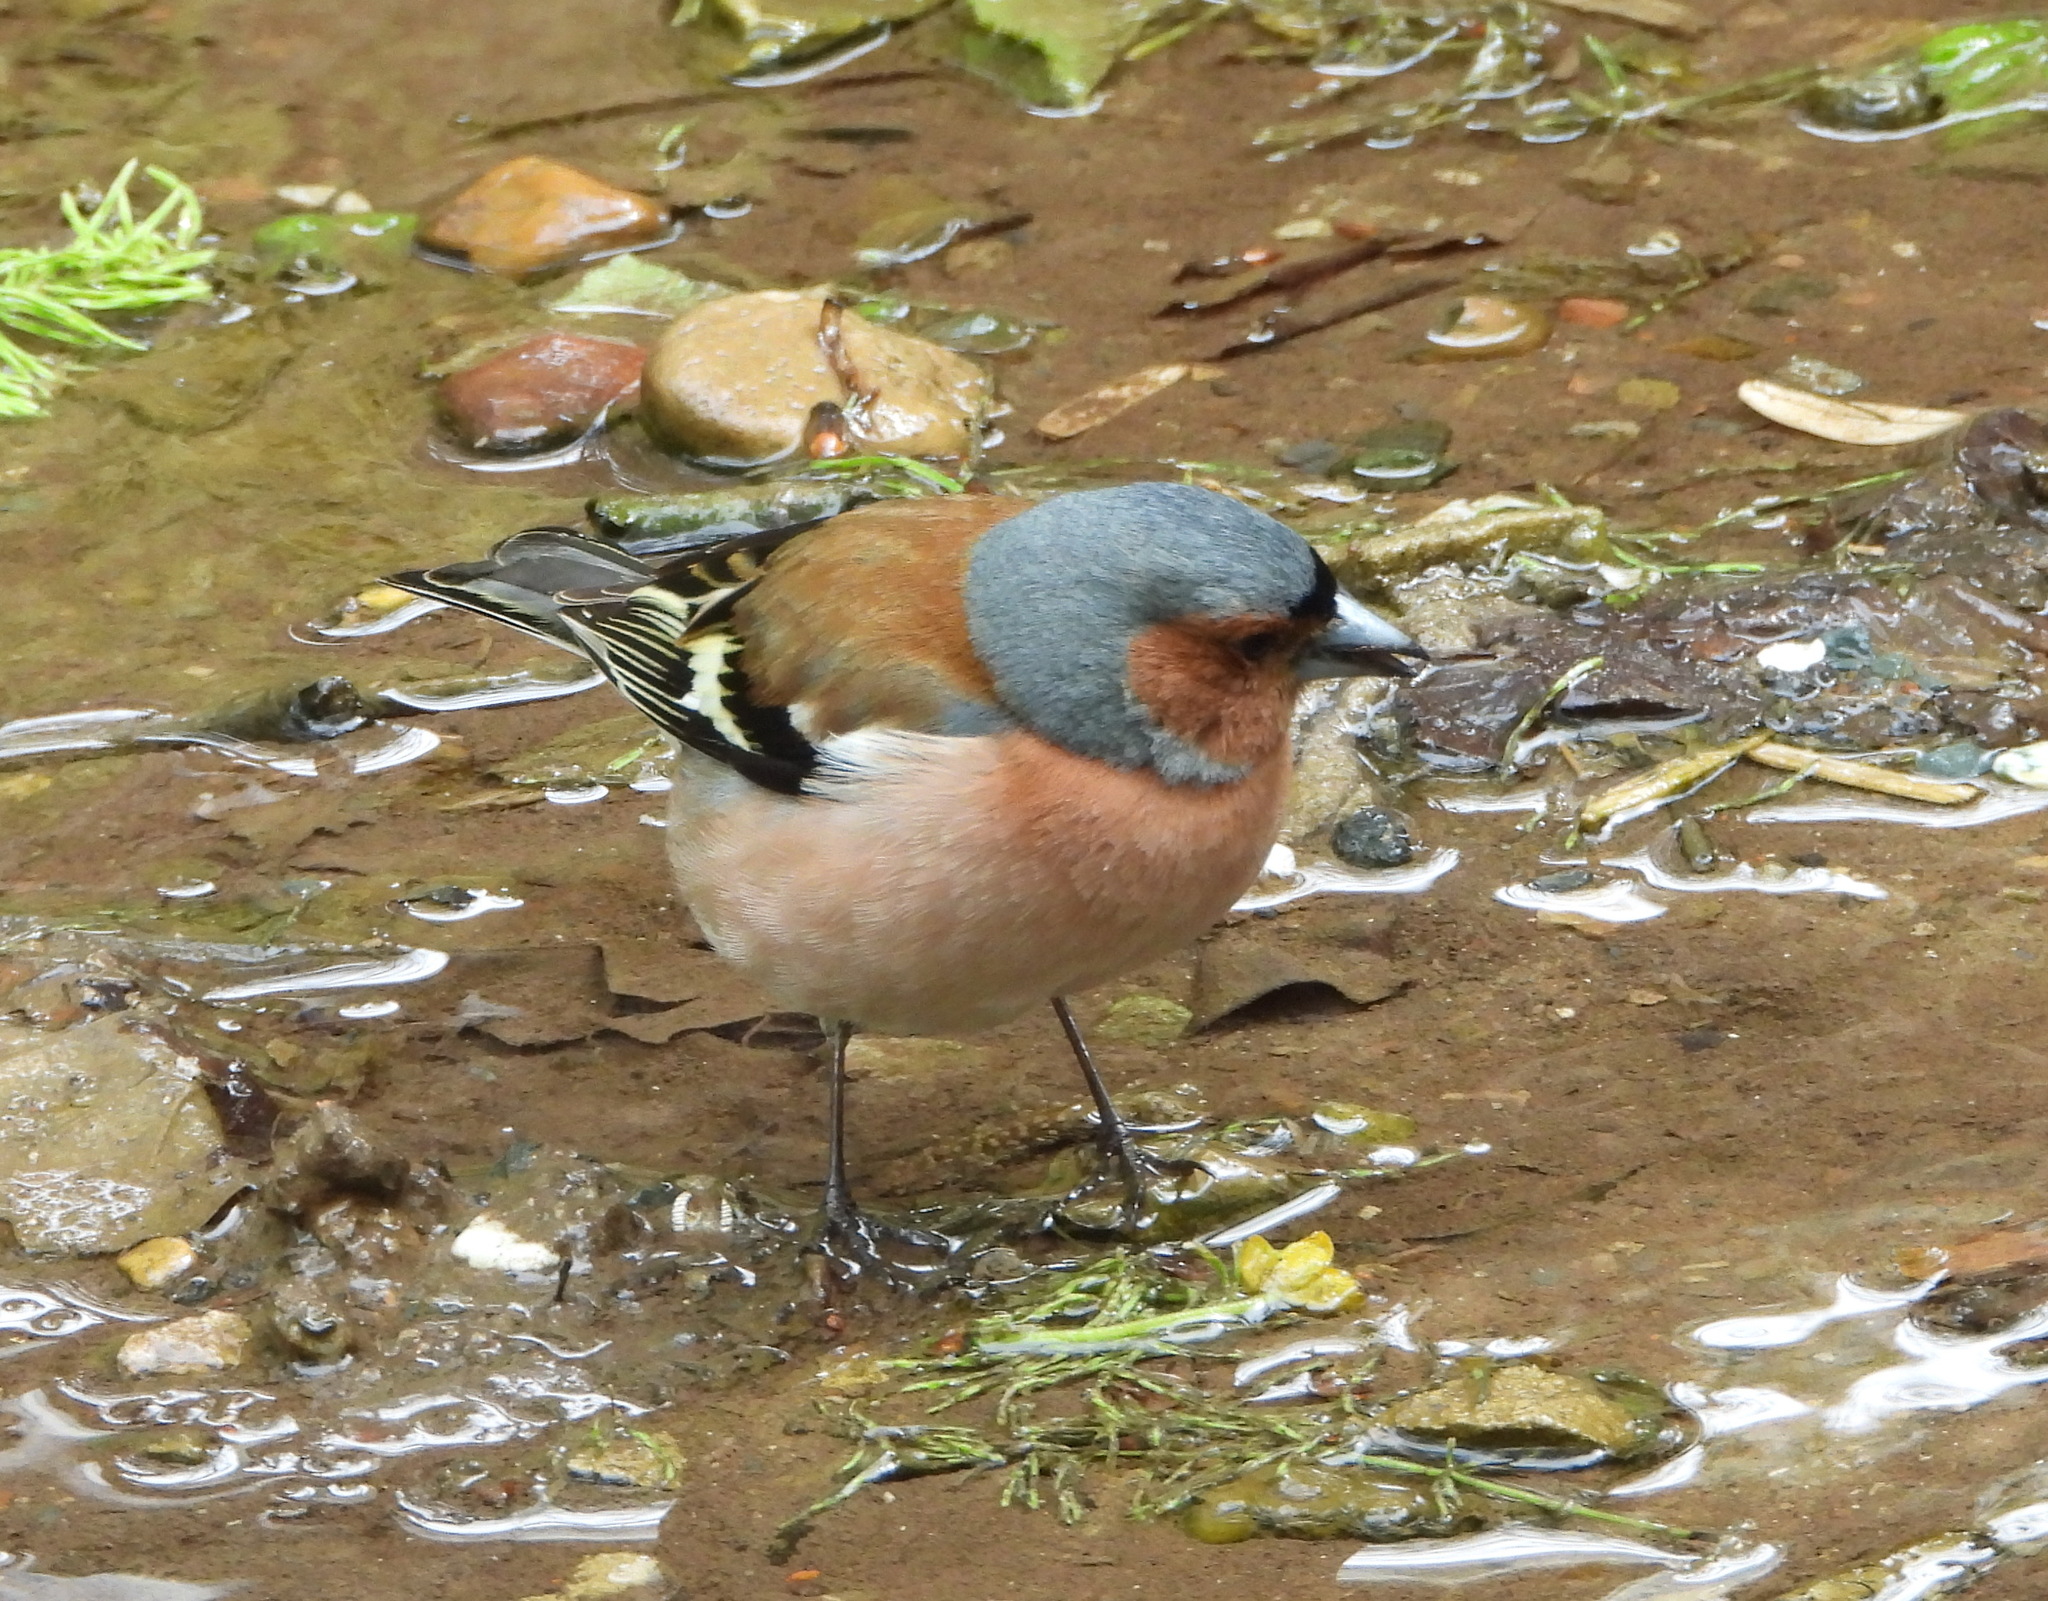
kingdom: Animalia
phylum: Chordata
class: Aves
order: Passeriformes
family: Fringillidae
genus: Fringilla
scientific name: Fringilla coelebs
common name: Common chaffinch
